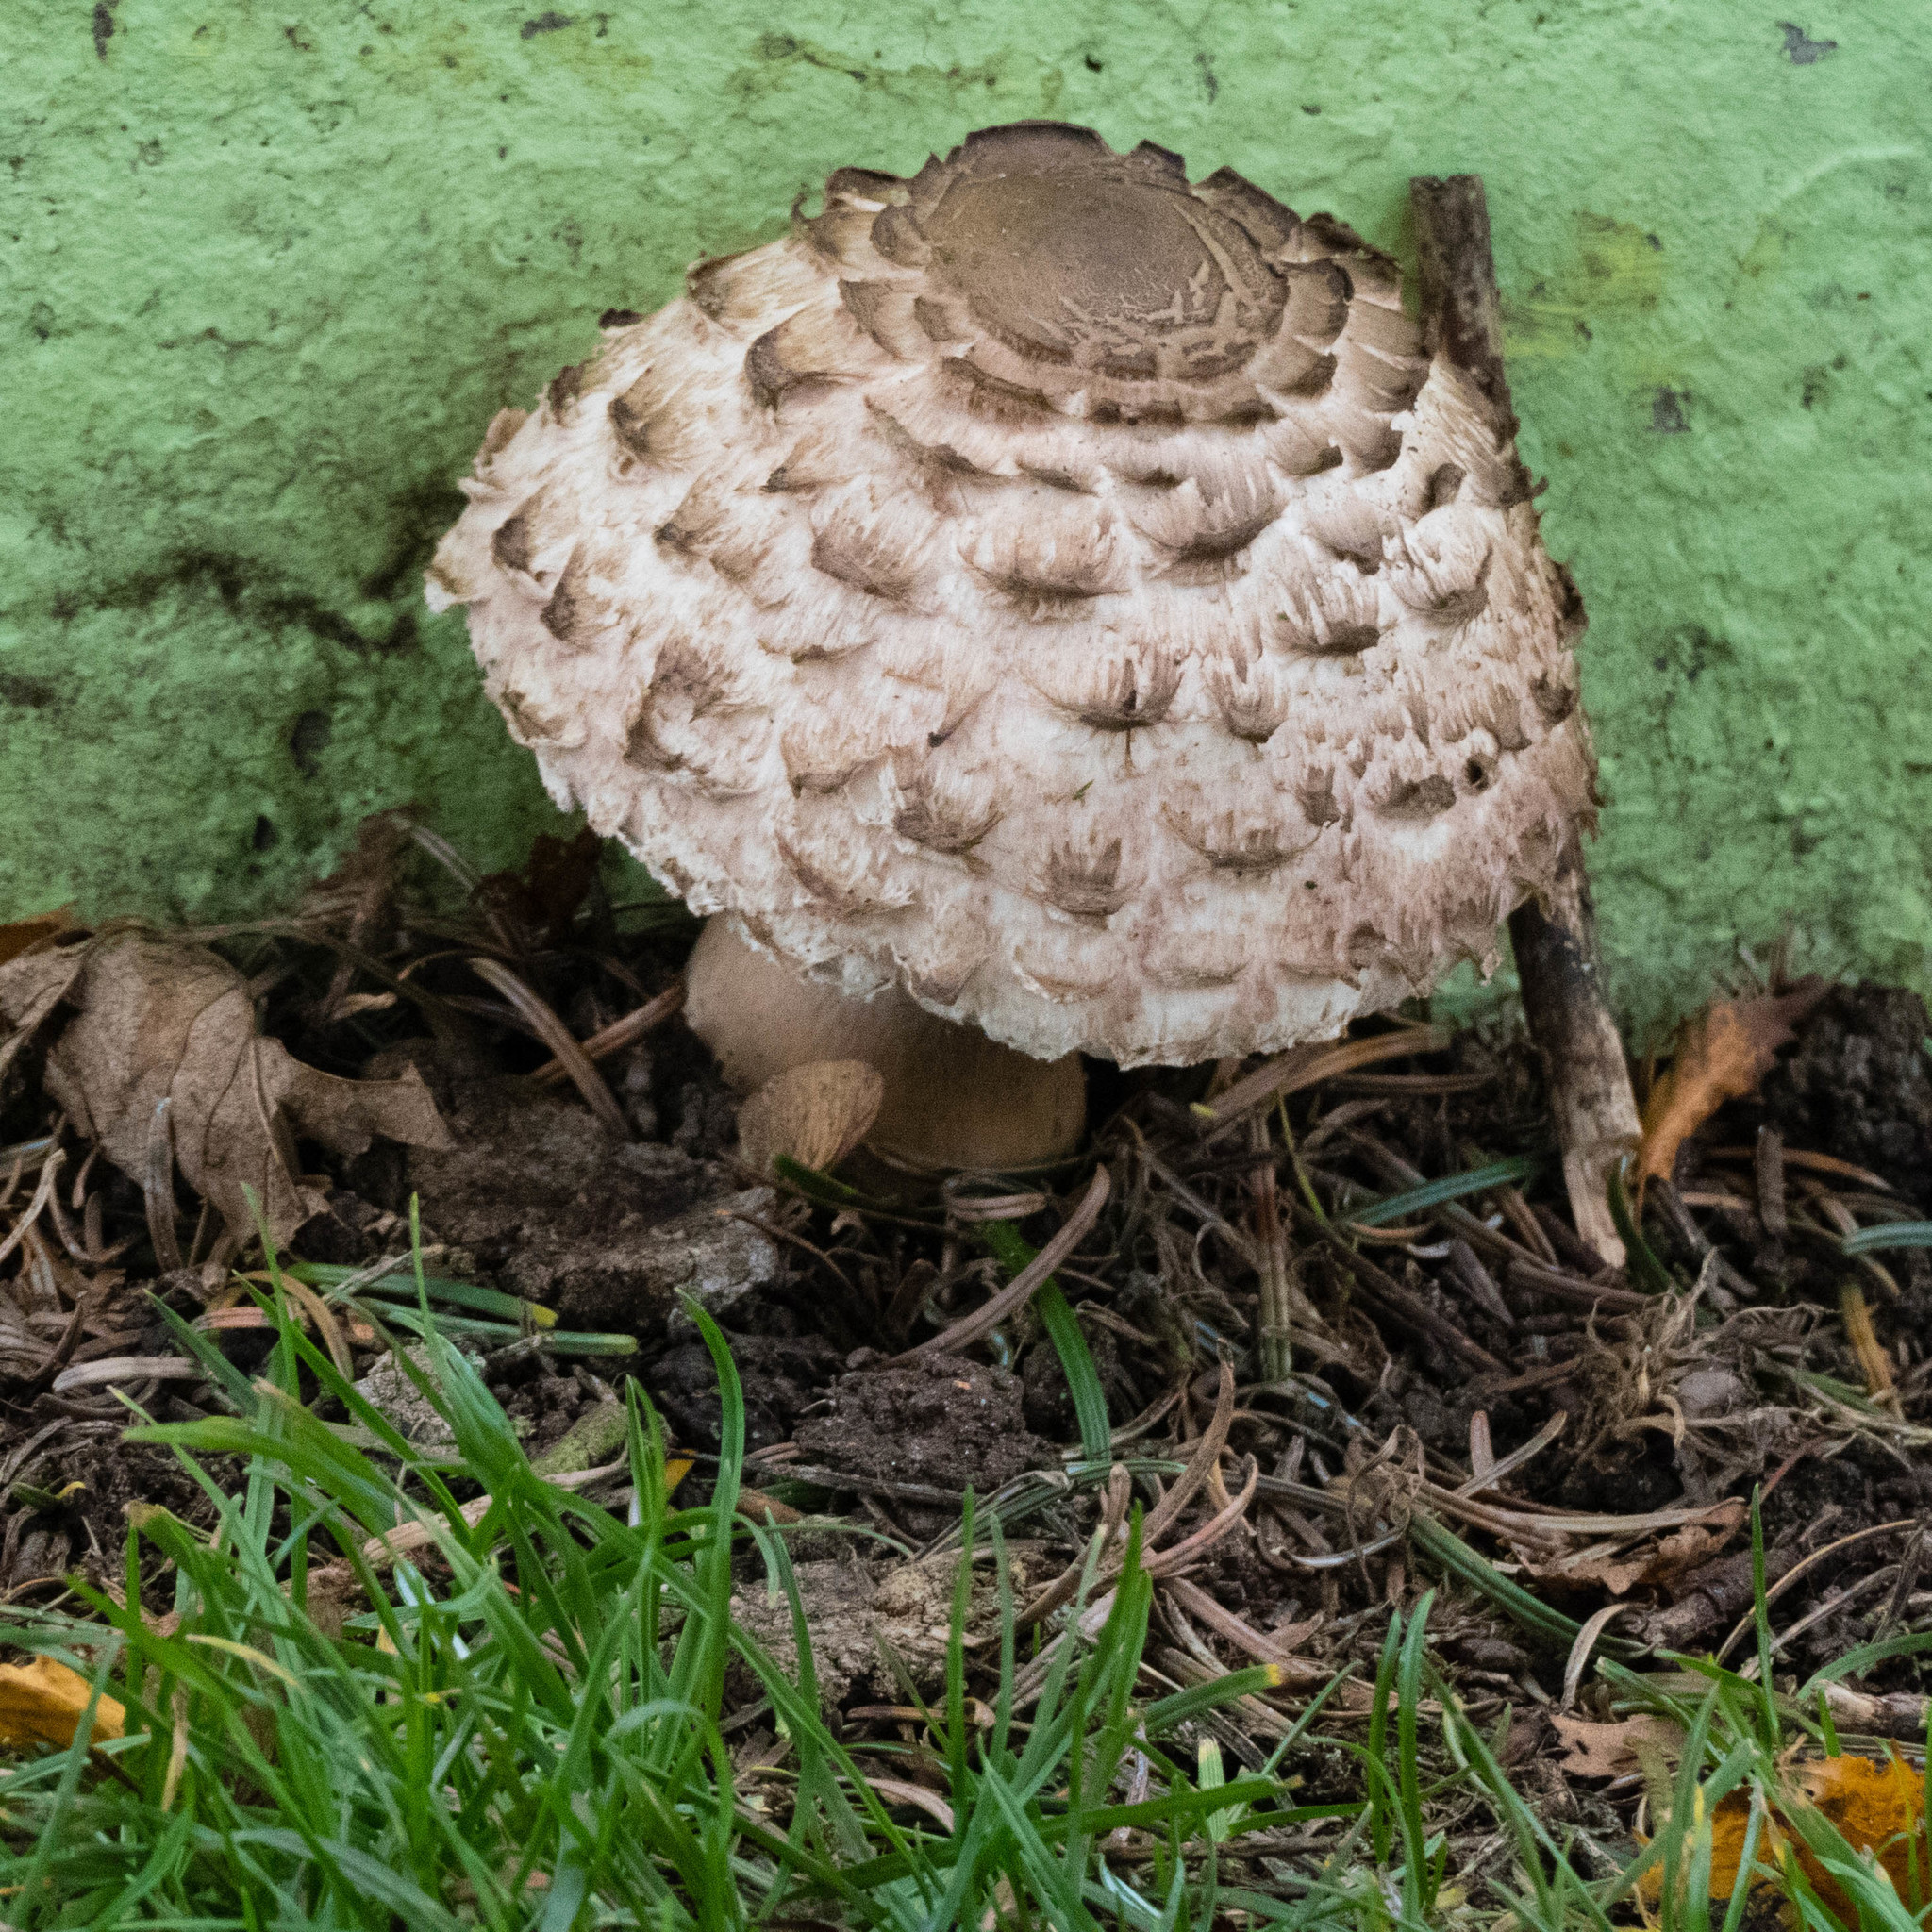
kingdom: Fungi
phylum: Basidiomycota
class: Agaricomycetes
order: Agaricales
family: Agaricaceae
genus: Chlorophyllum
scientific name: Chlorophyllum rhacodes
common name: Shaggy parasol
